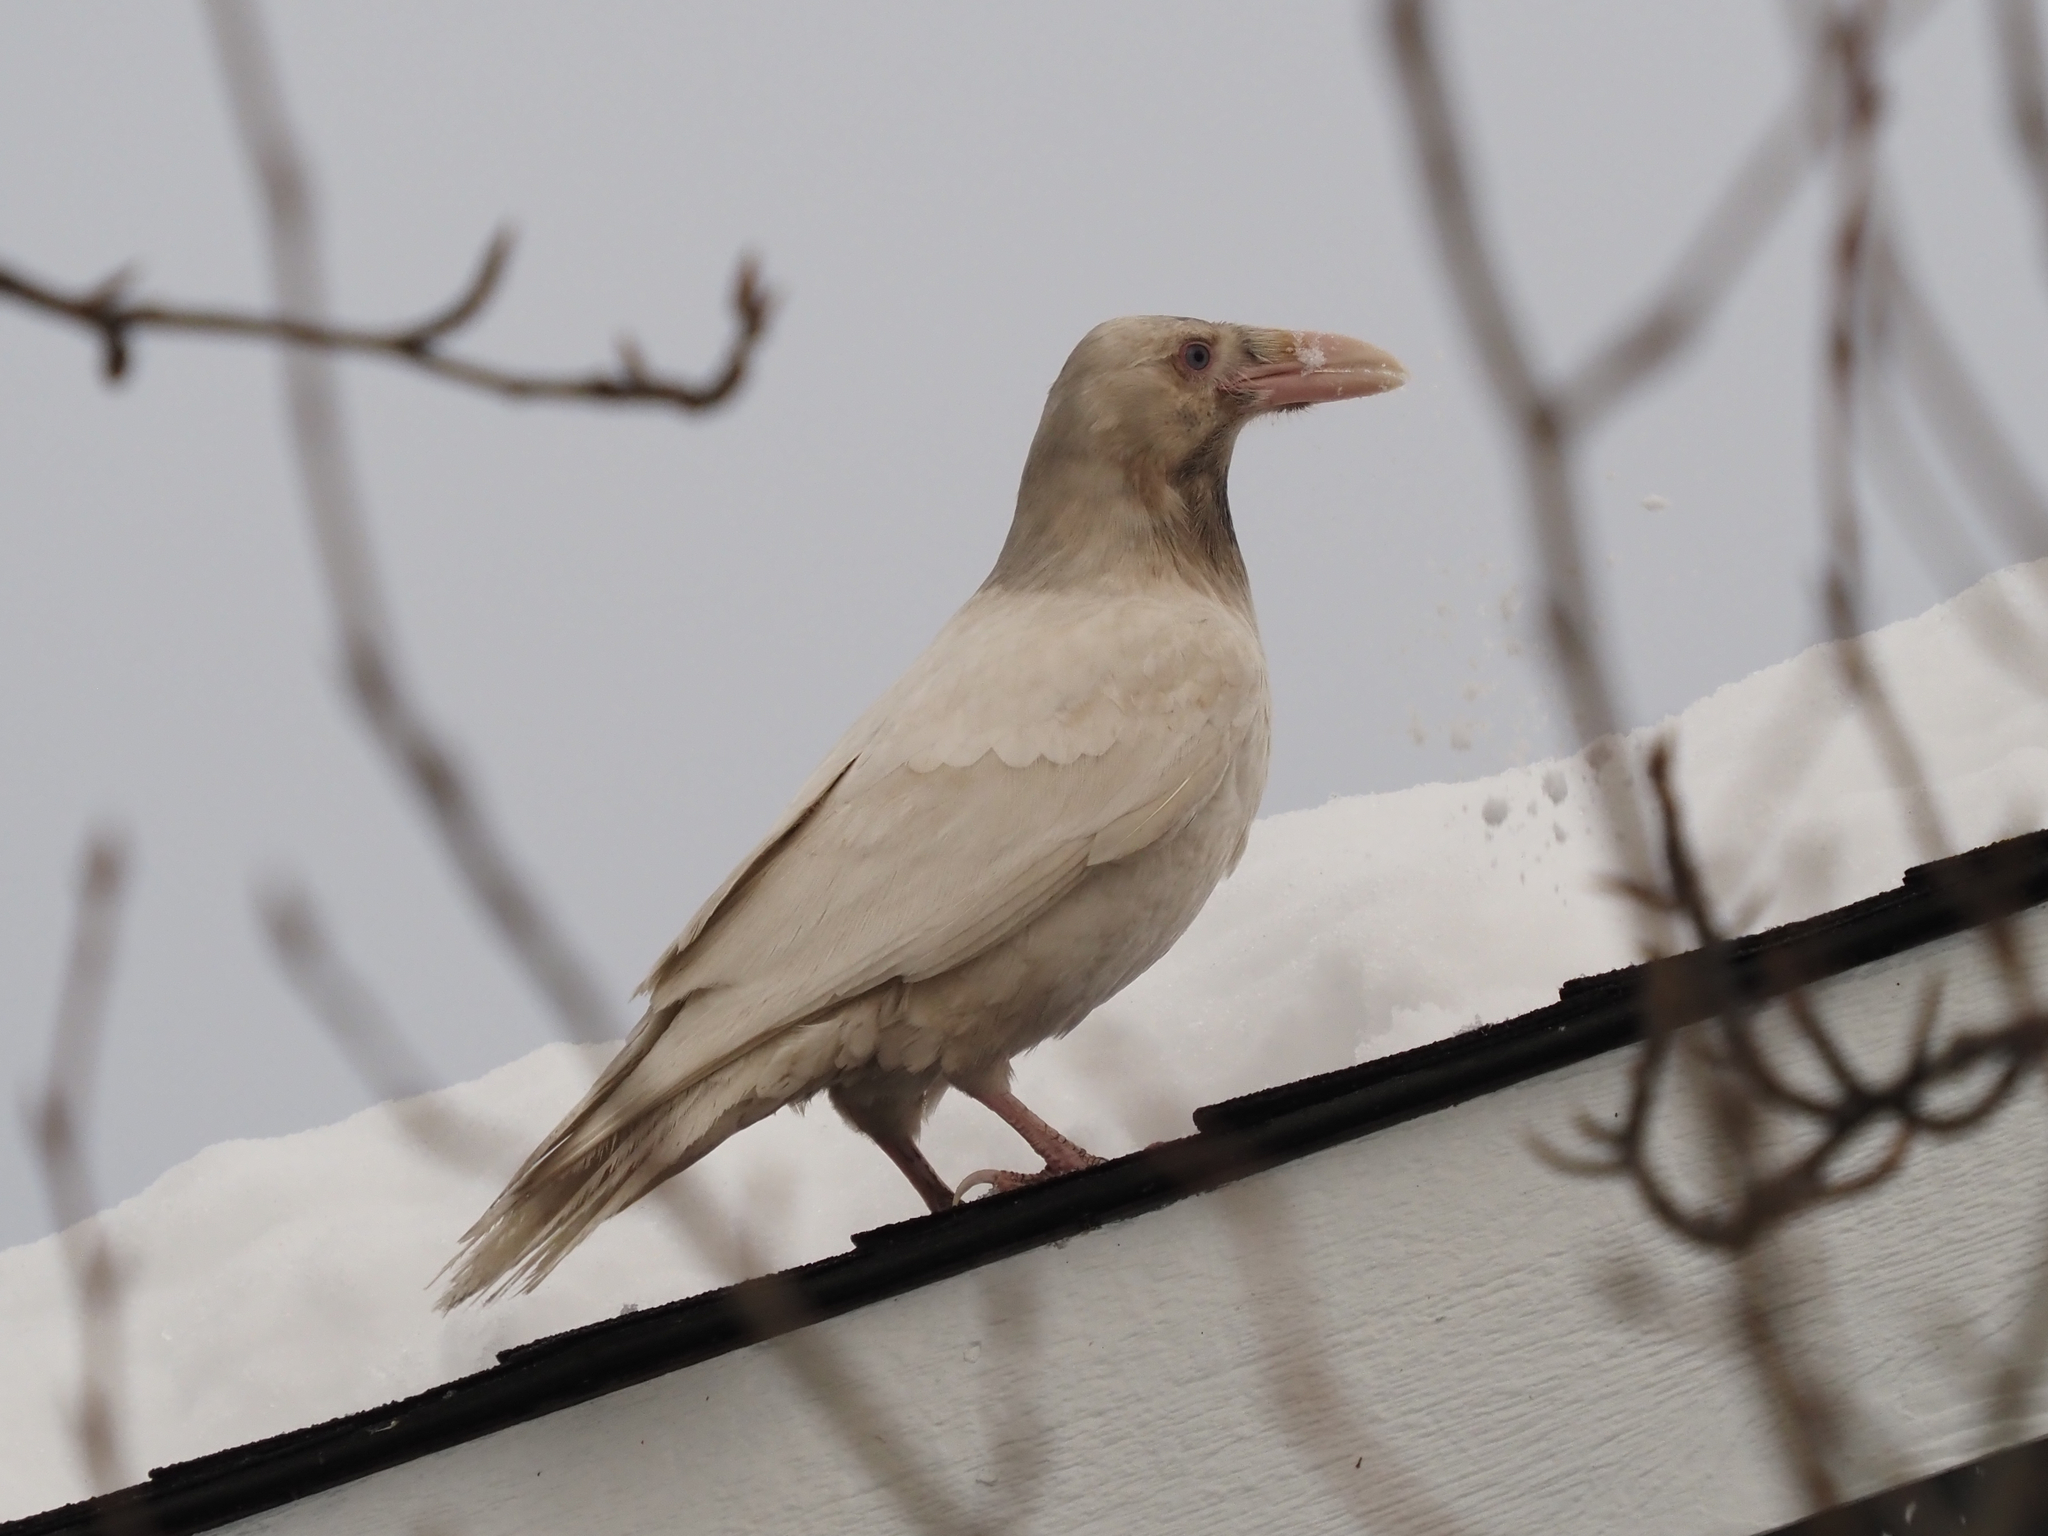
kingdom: Animalia
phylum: Chordata
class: Aves
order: Passeriformes
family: Corvidae
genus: Corvus
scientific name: Corvus corax
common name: Common raven
